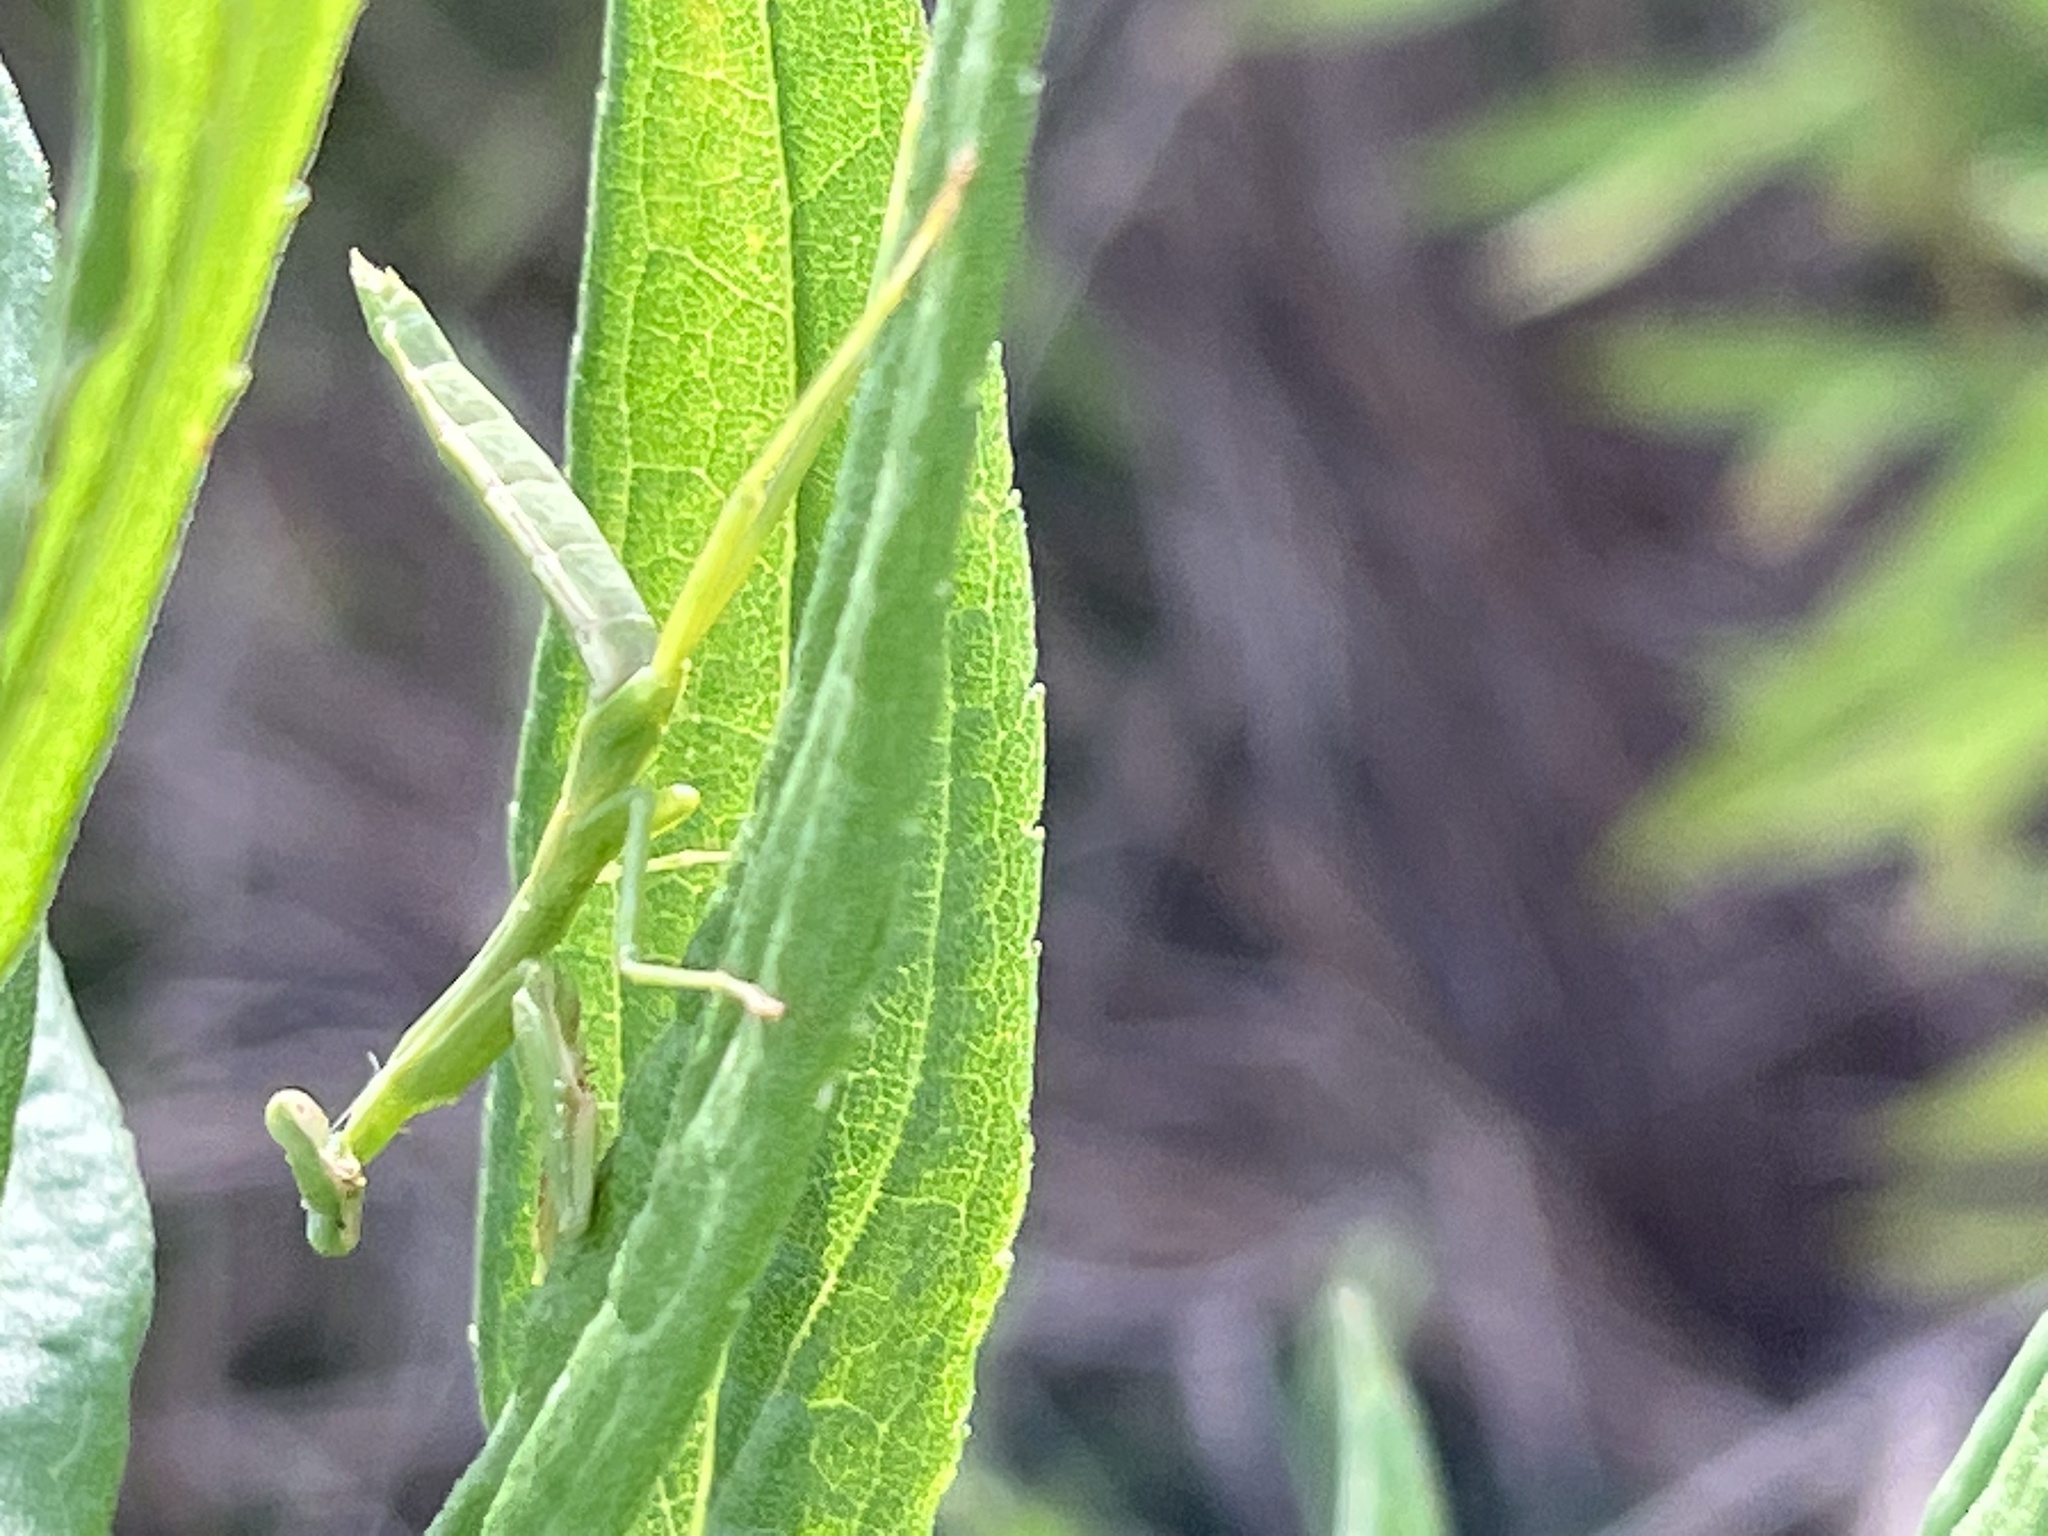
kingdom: Animalia
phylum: Arthropoda
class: Insecta
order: Mantodea
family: Mantidae
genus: Stagmomantis
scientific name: Stagmomantis carolina
